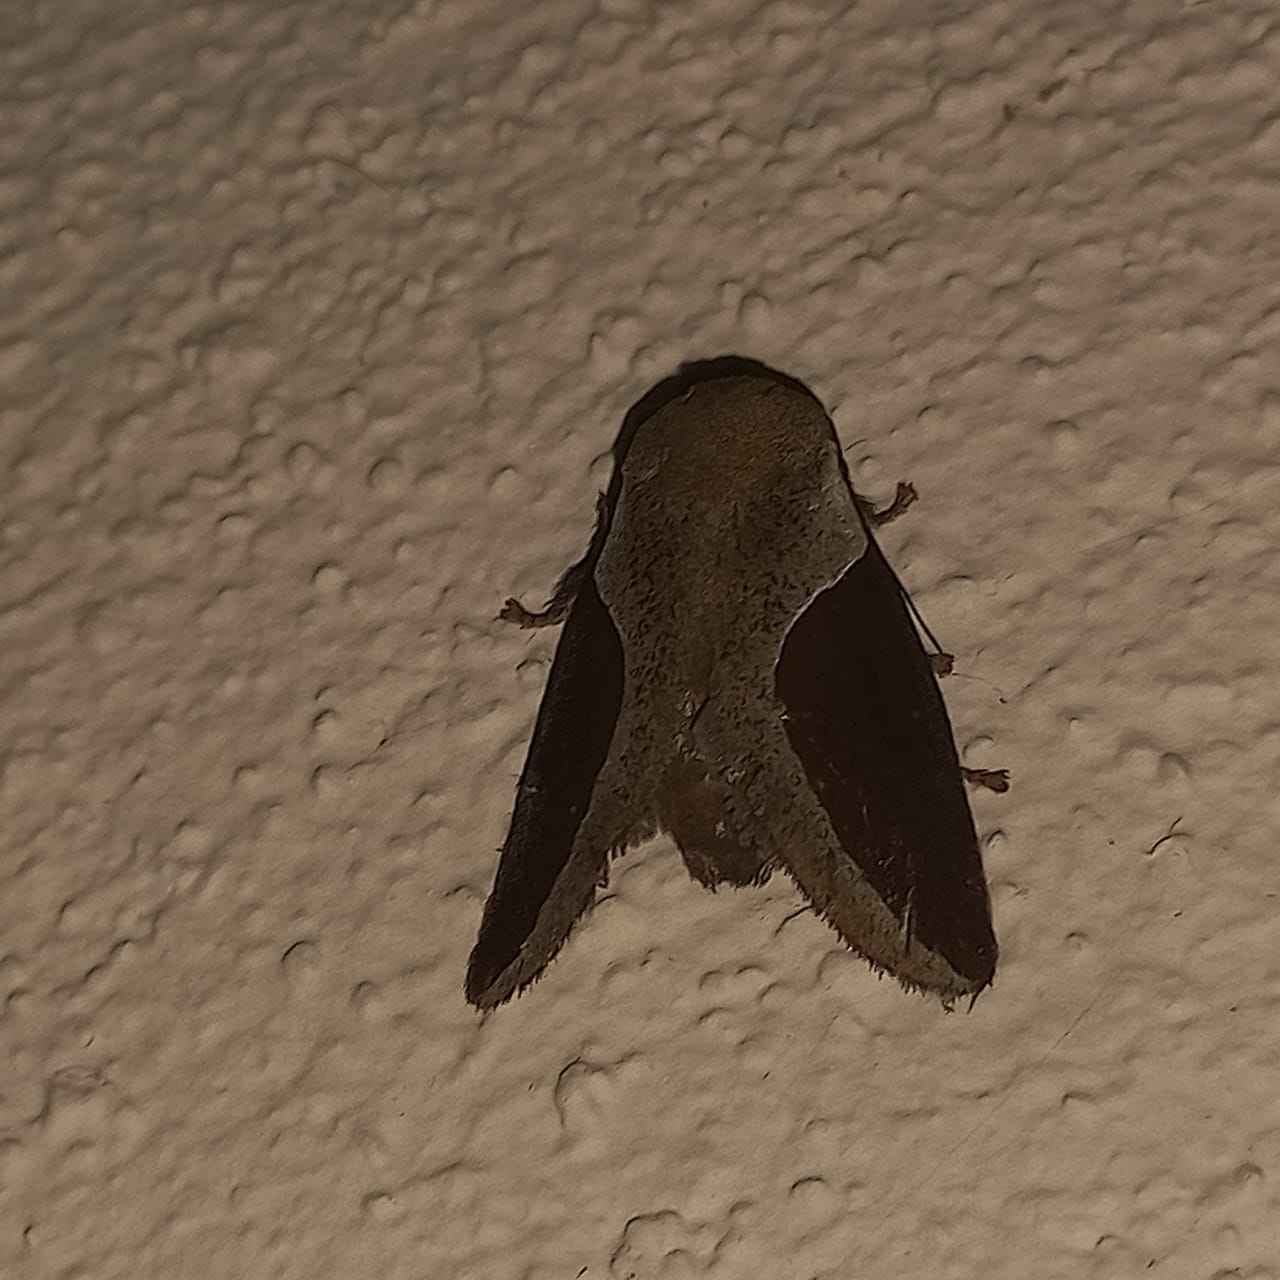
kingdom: Animalia
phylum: Arthropoda
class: Insecta
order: Lepidoptera
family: Limacodidae
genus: Prolimacodes
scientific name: Prolimacodes badia
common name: Skiff moth
